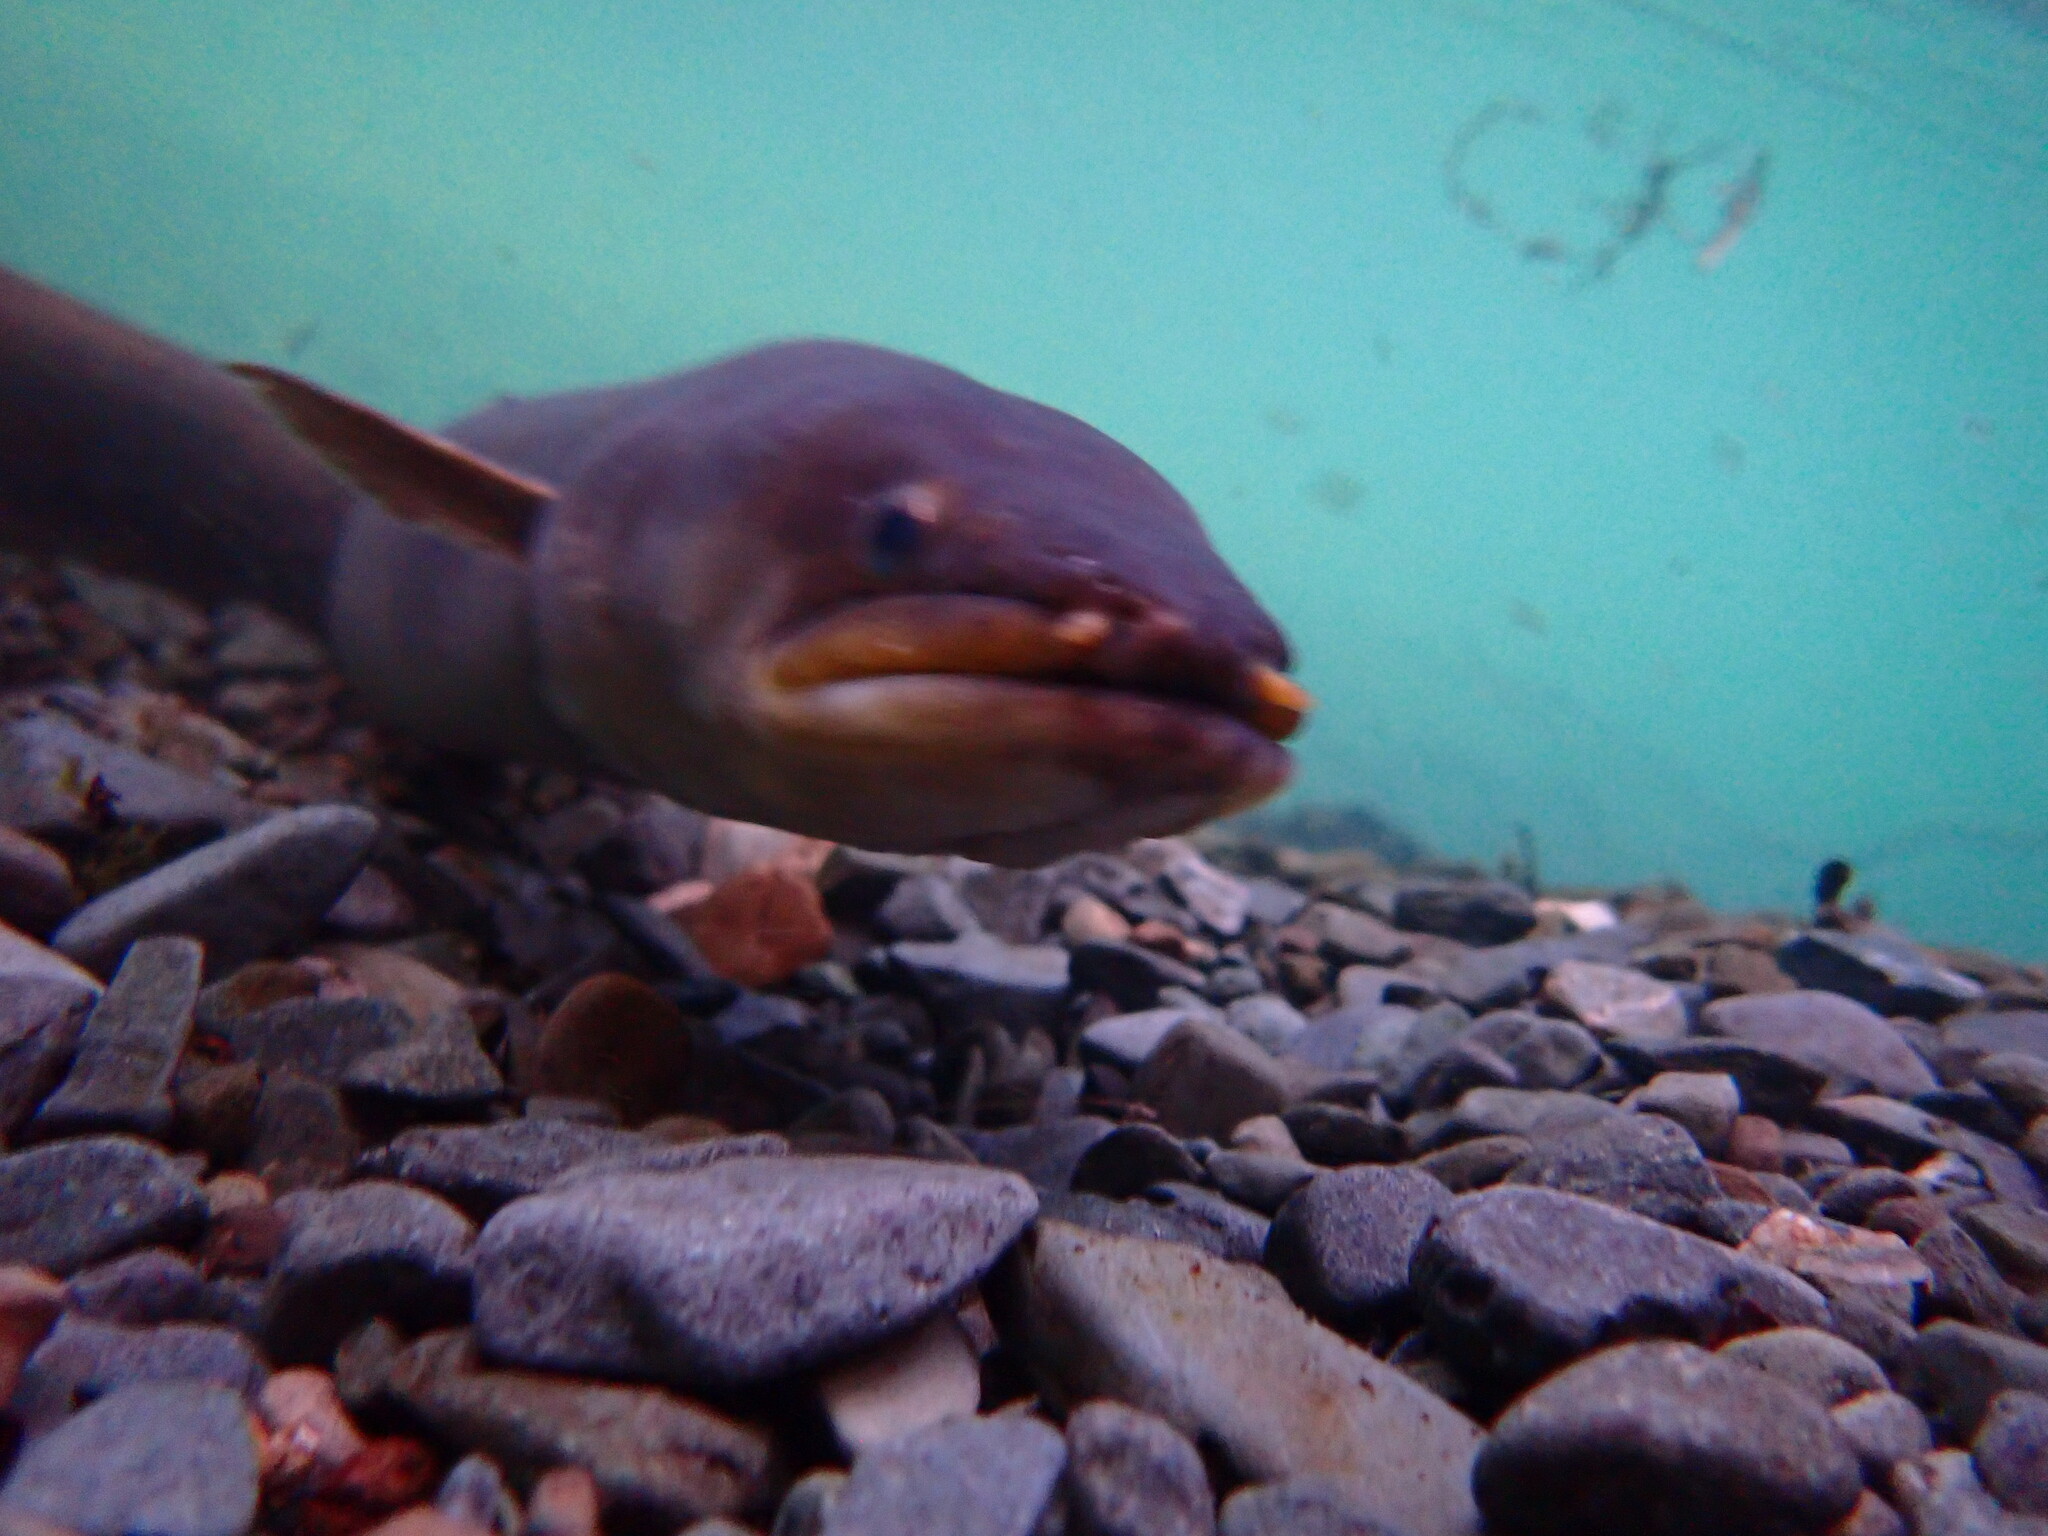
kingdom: Animalia
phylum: Chordata
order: Anguilliformes
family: Anguillidae
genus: Anguilla
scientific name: Anguilla dieffenbachii
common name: New zealand longfin eel
